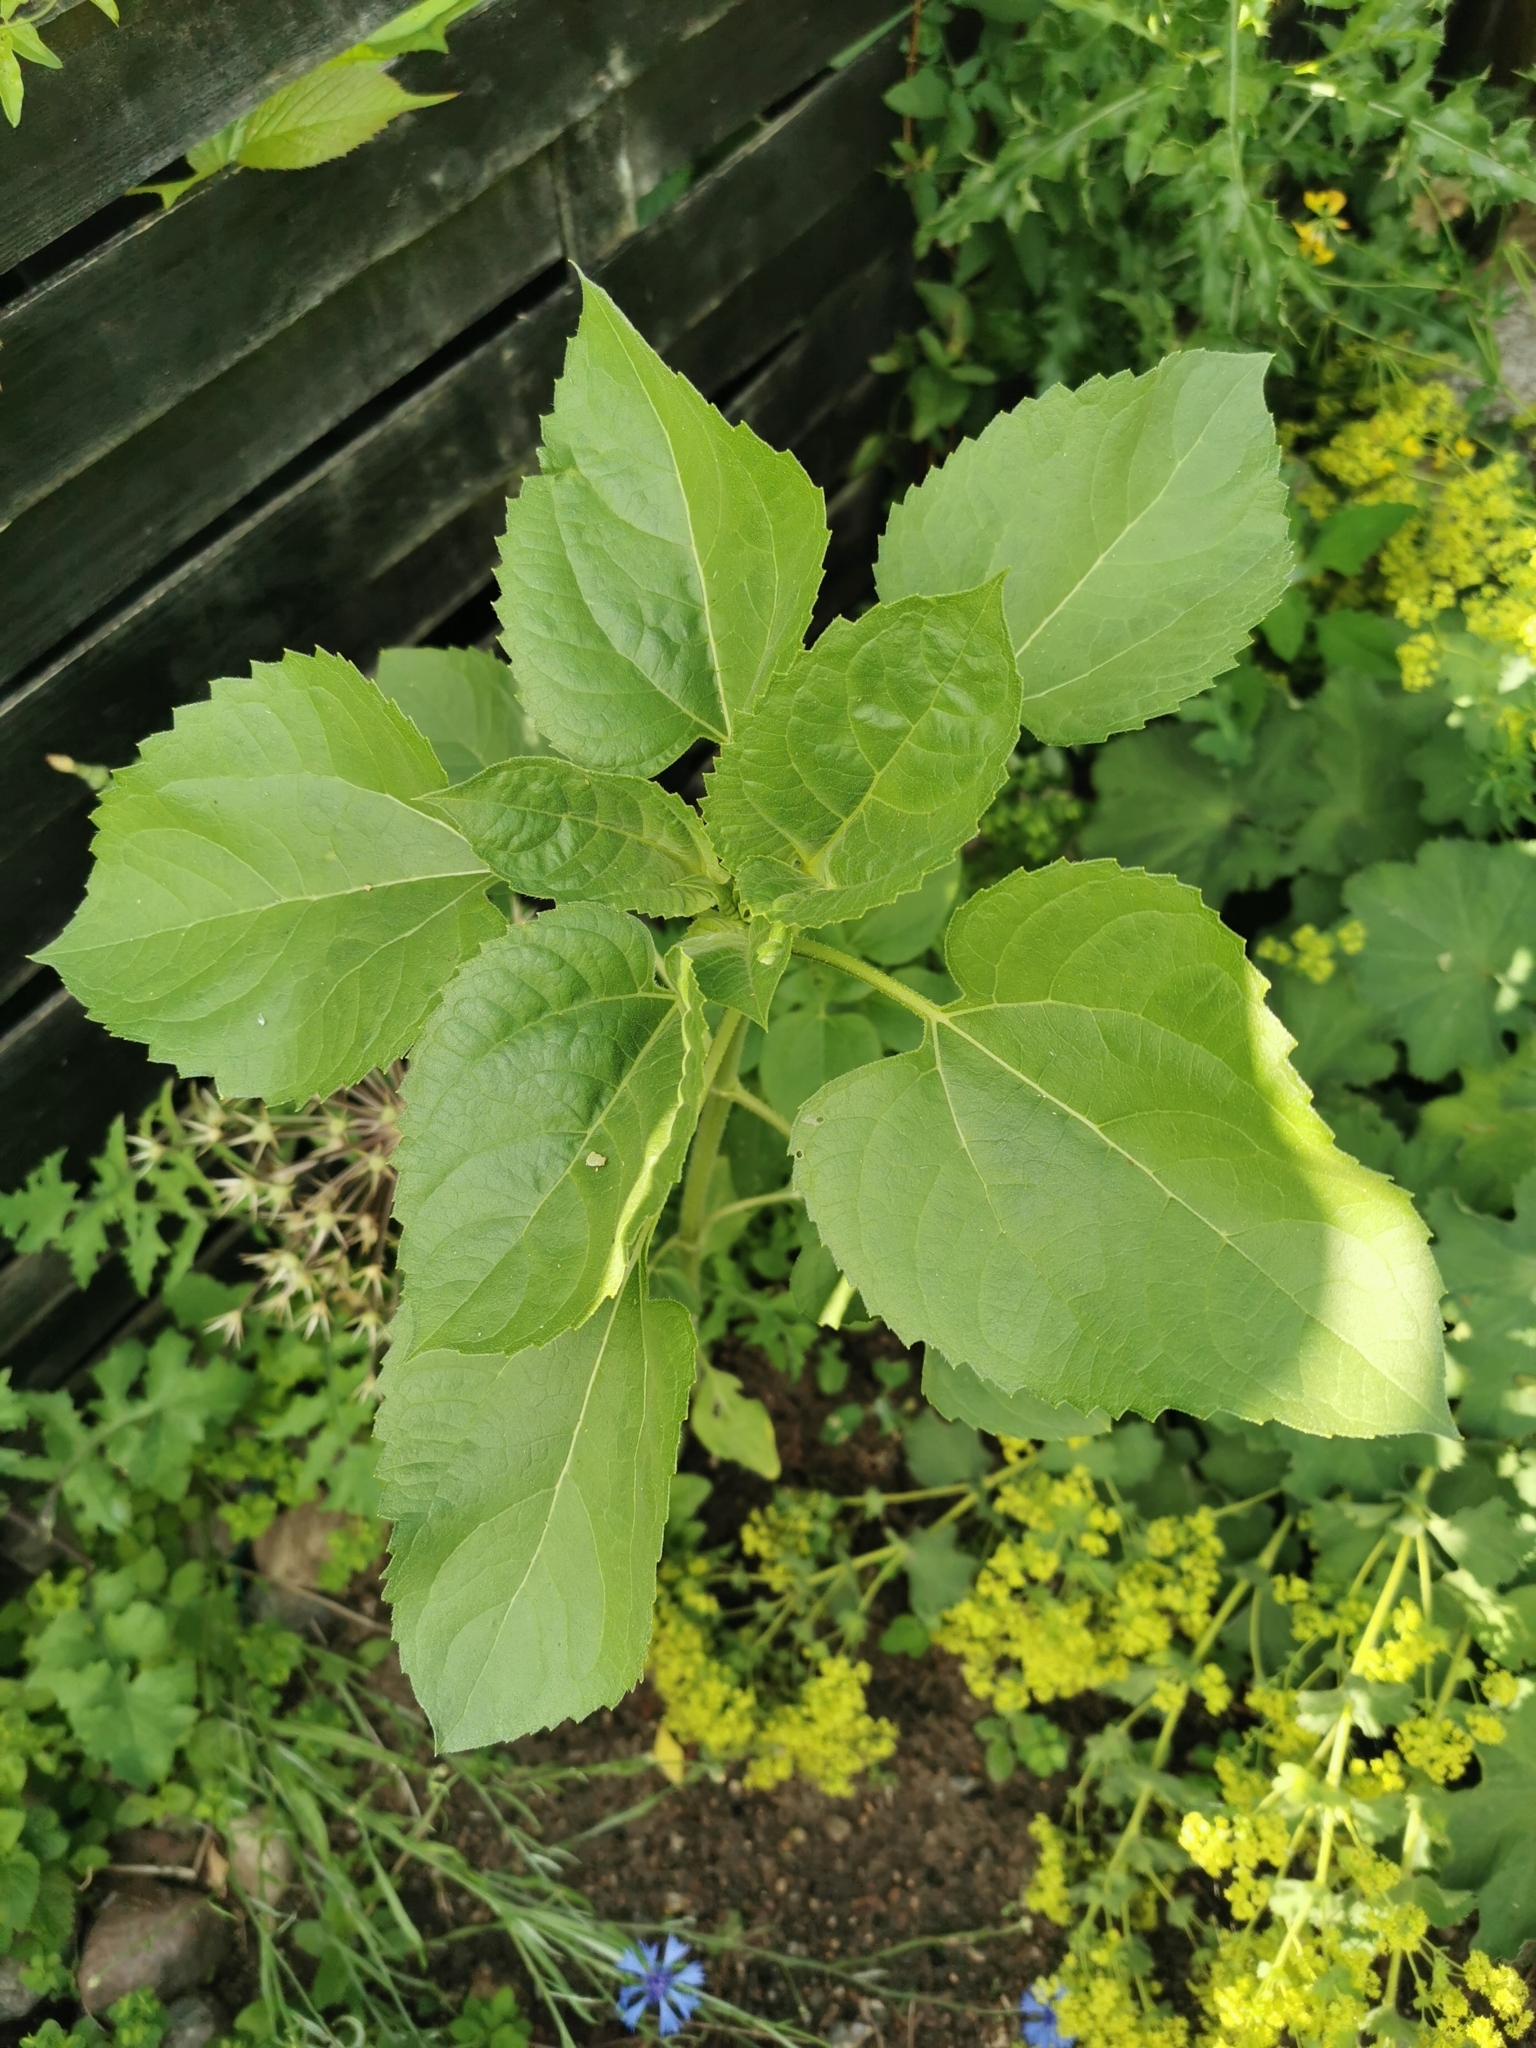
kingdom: Plantae
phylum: Tracheophyta
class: Magnoliopsida
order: Asterales
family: Asteraceae
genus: Helianthus
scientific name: Helianthus annuus
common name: Sunflower
